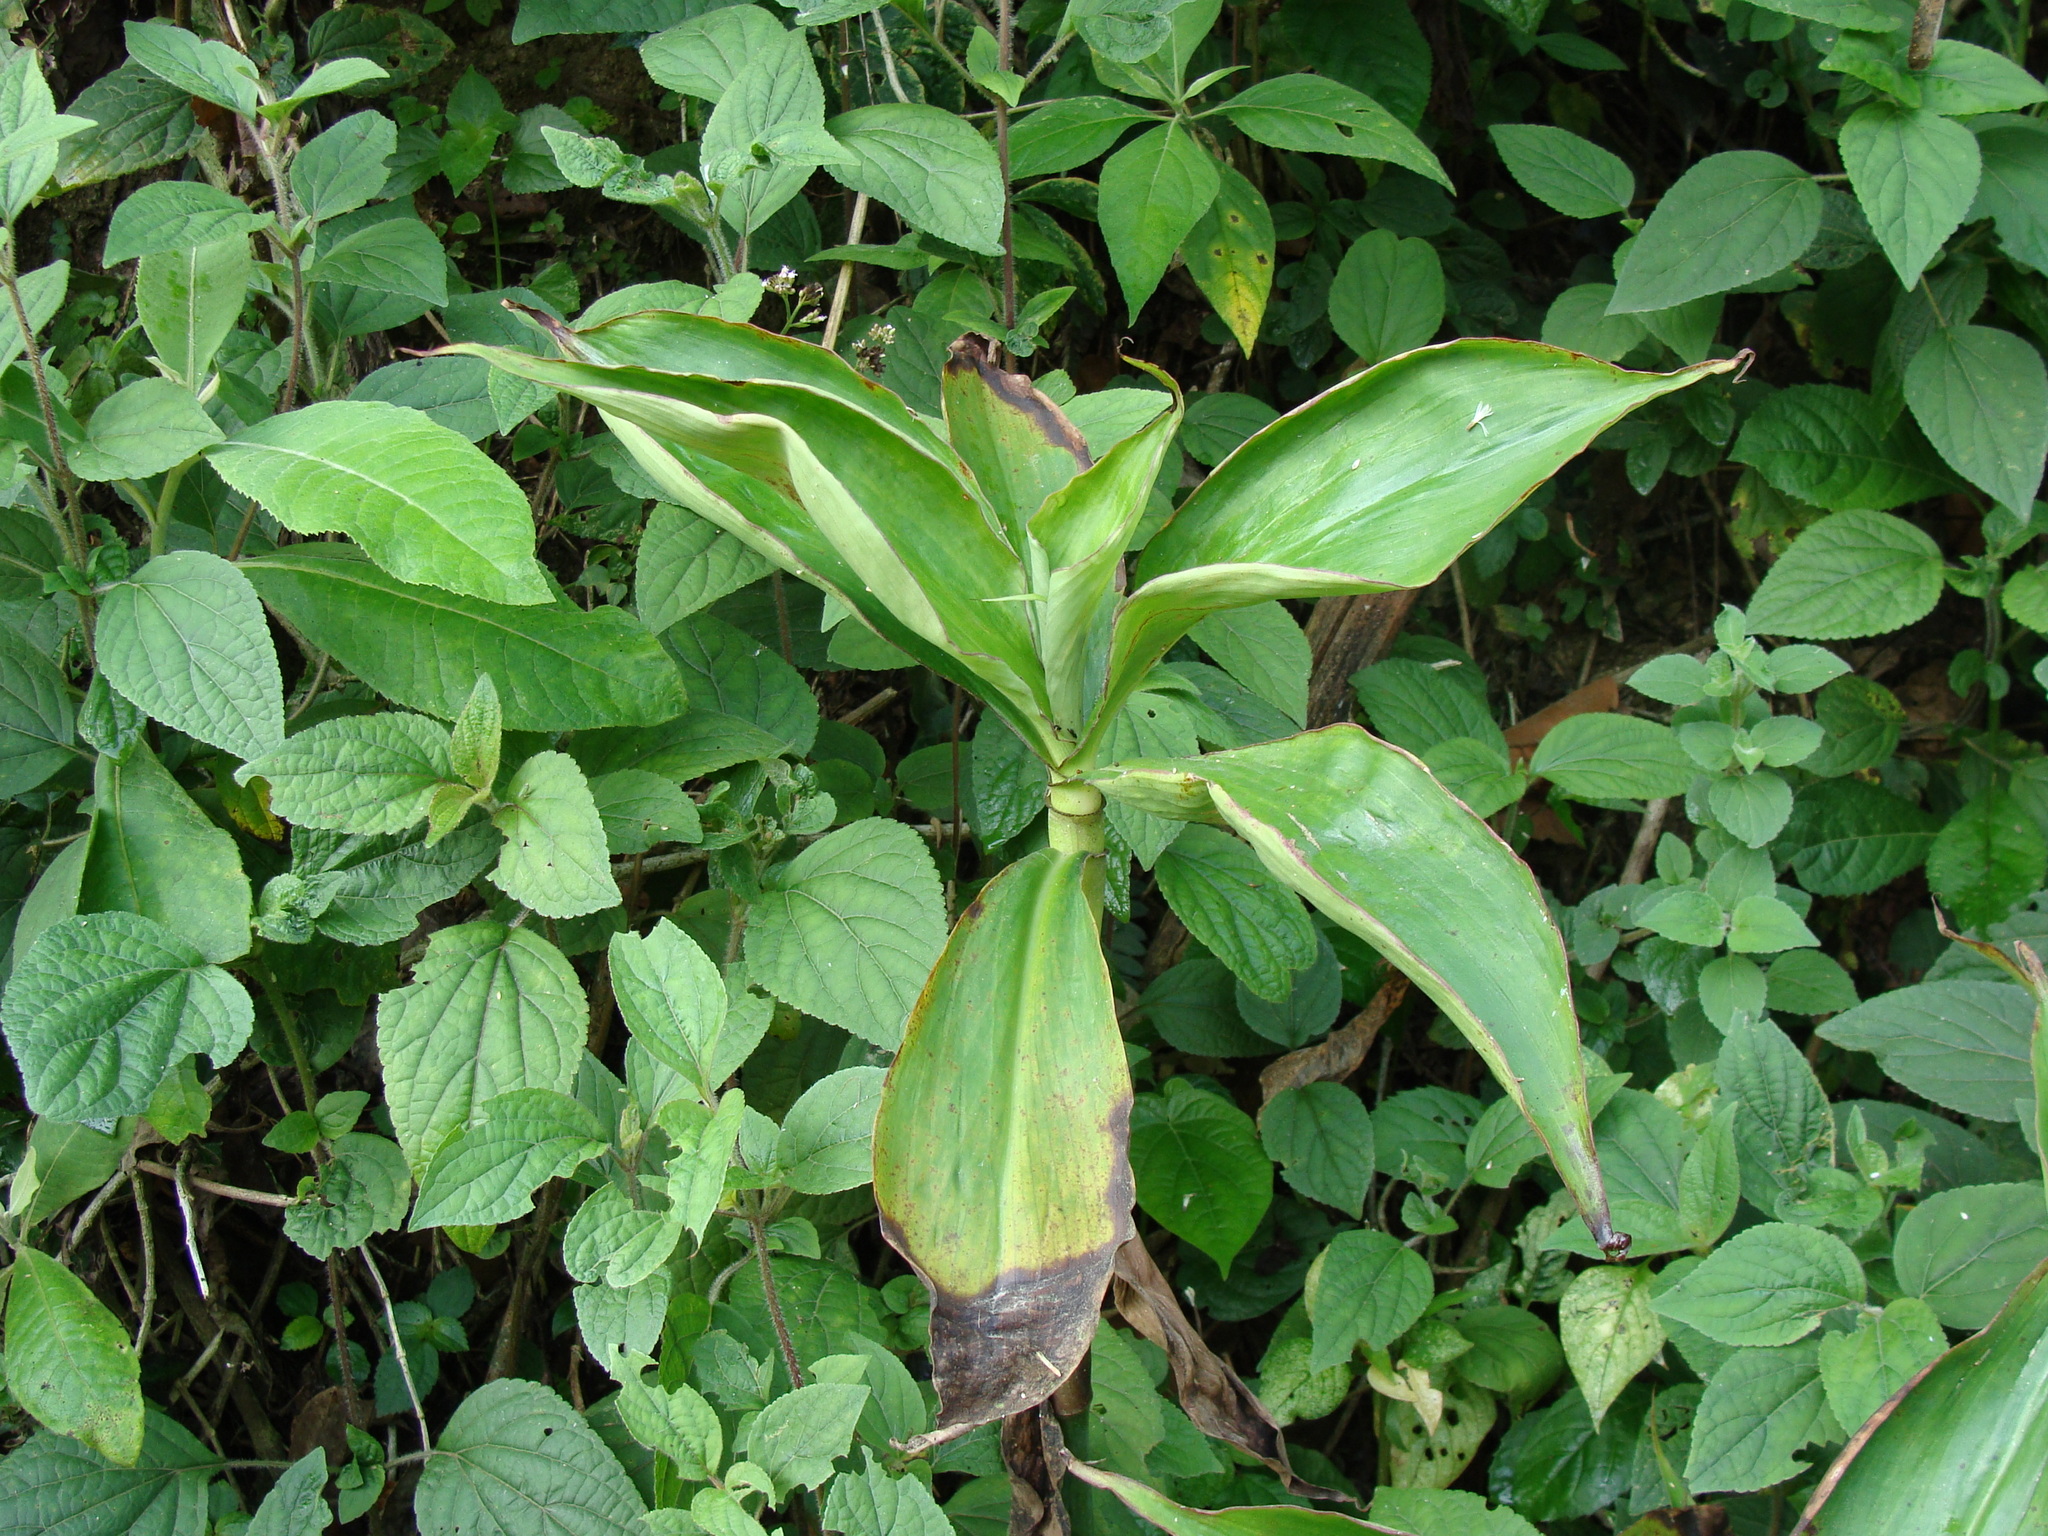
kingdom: Plantae
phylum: Tracheophyta
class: Liliopsida
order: Zingiberales
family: Costaceae
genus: Costus
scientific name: Costus pictus
